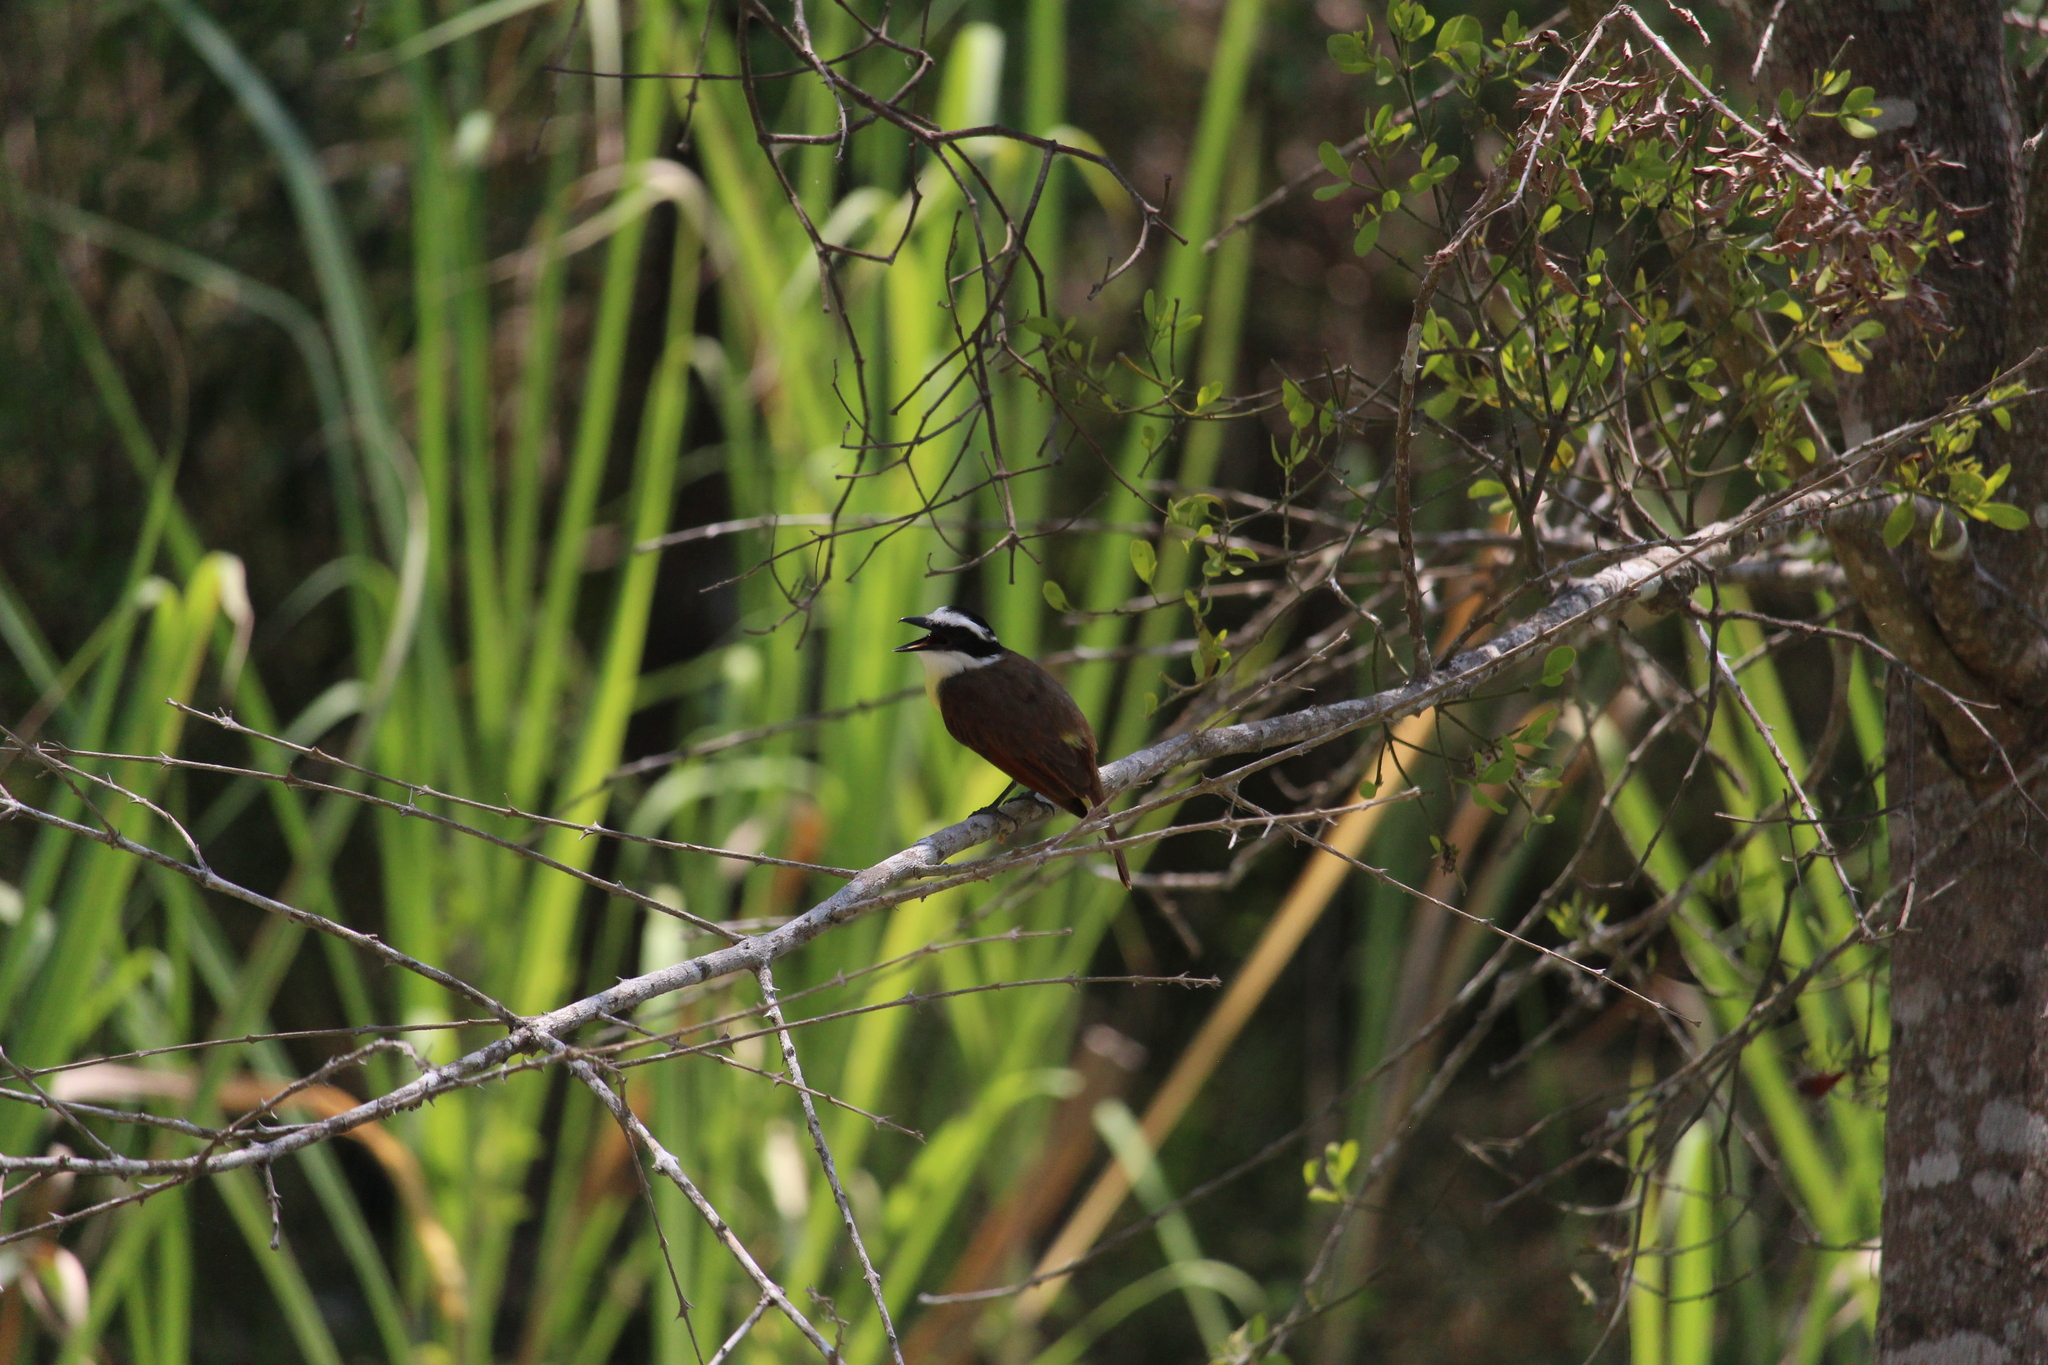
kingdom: Animalia
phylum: Chordata
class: Aves
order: Passeriformes
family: Tyrannidae
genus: Pitangus
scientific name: Pitangus sulphuratus
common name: Great kiskadee
